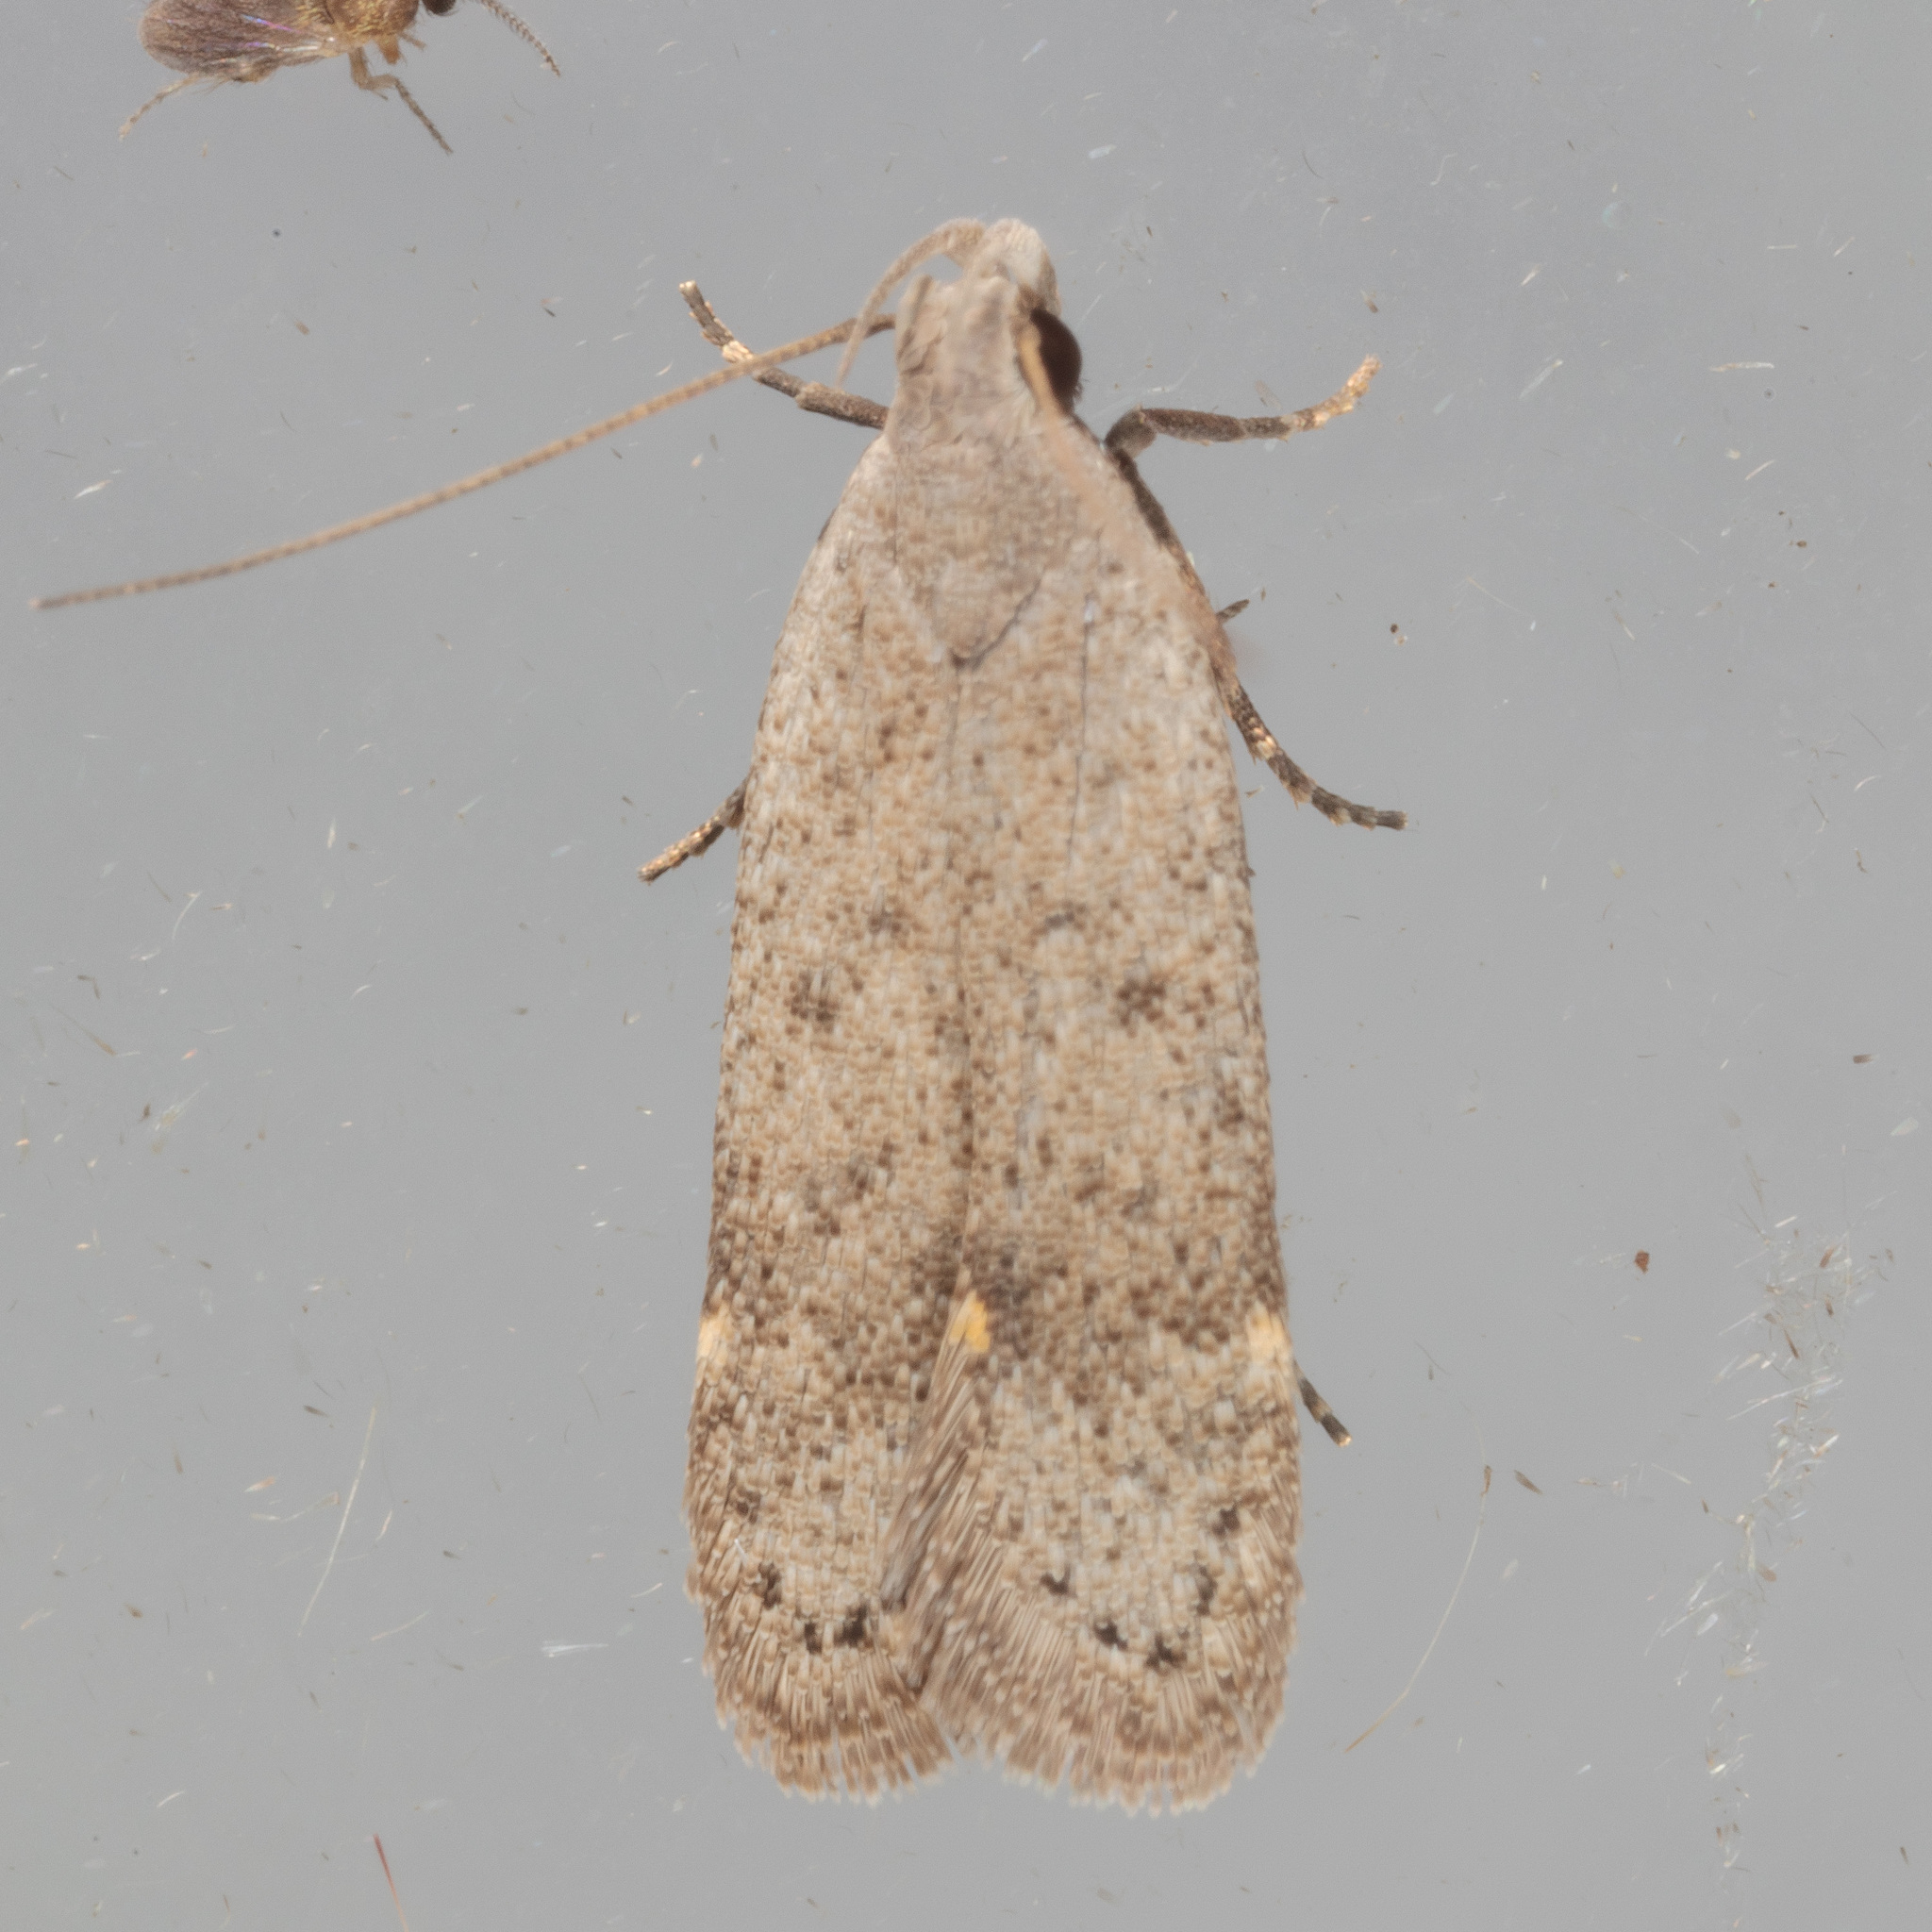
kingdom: Animalia
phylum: Arthropoda
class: Insecta
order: Lepidoptera
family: Gelechiidae
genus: Anacampsis
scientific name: Anacampsis comparanda
